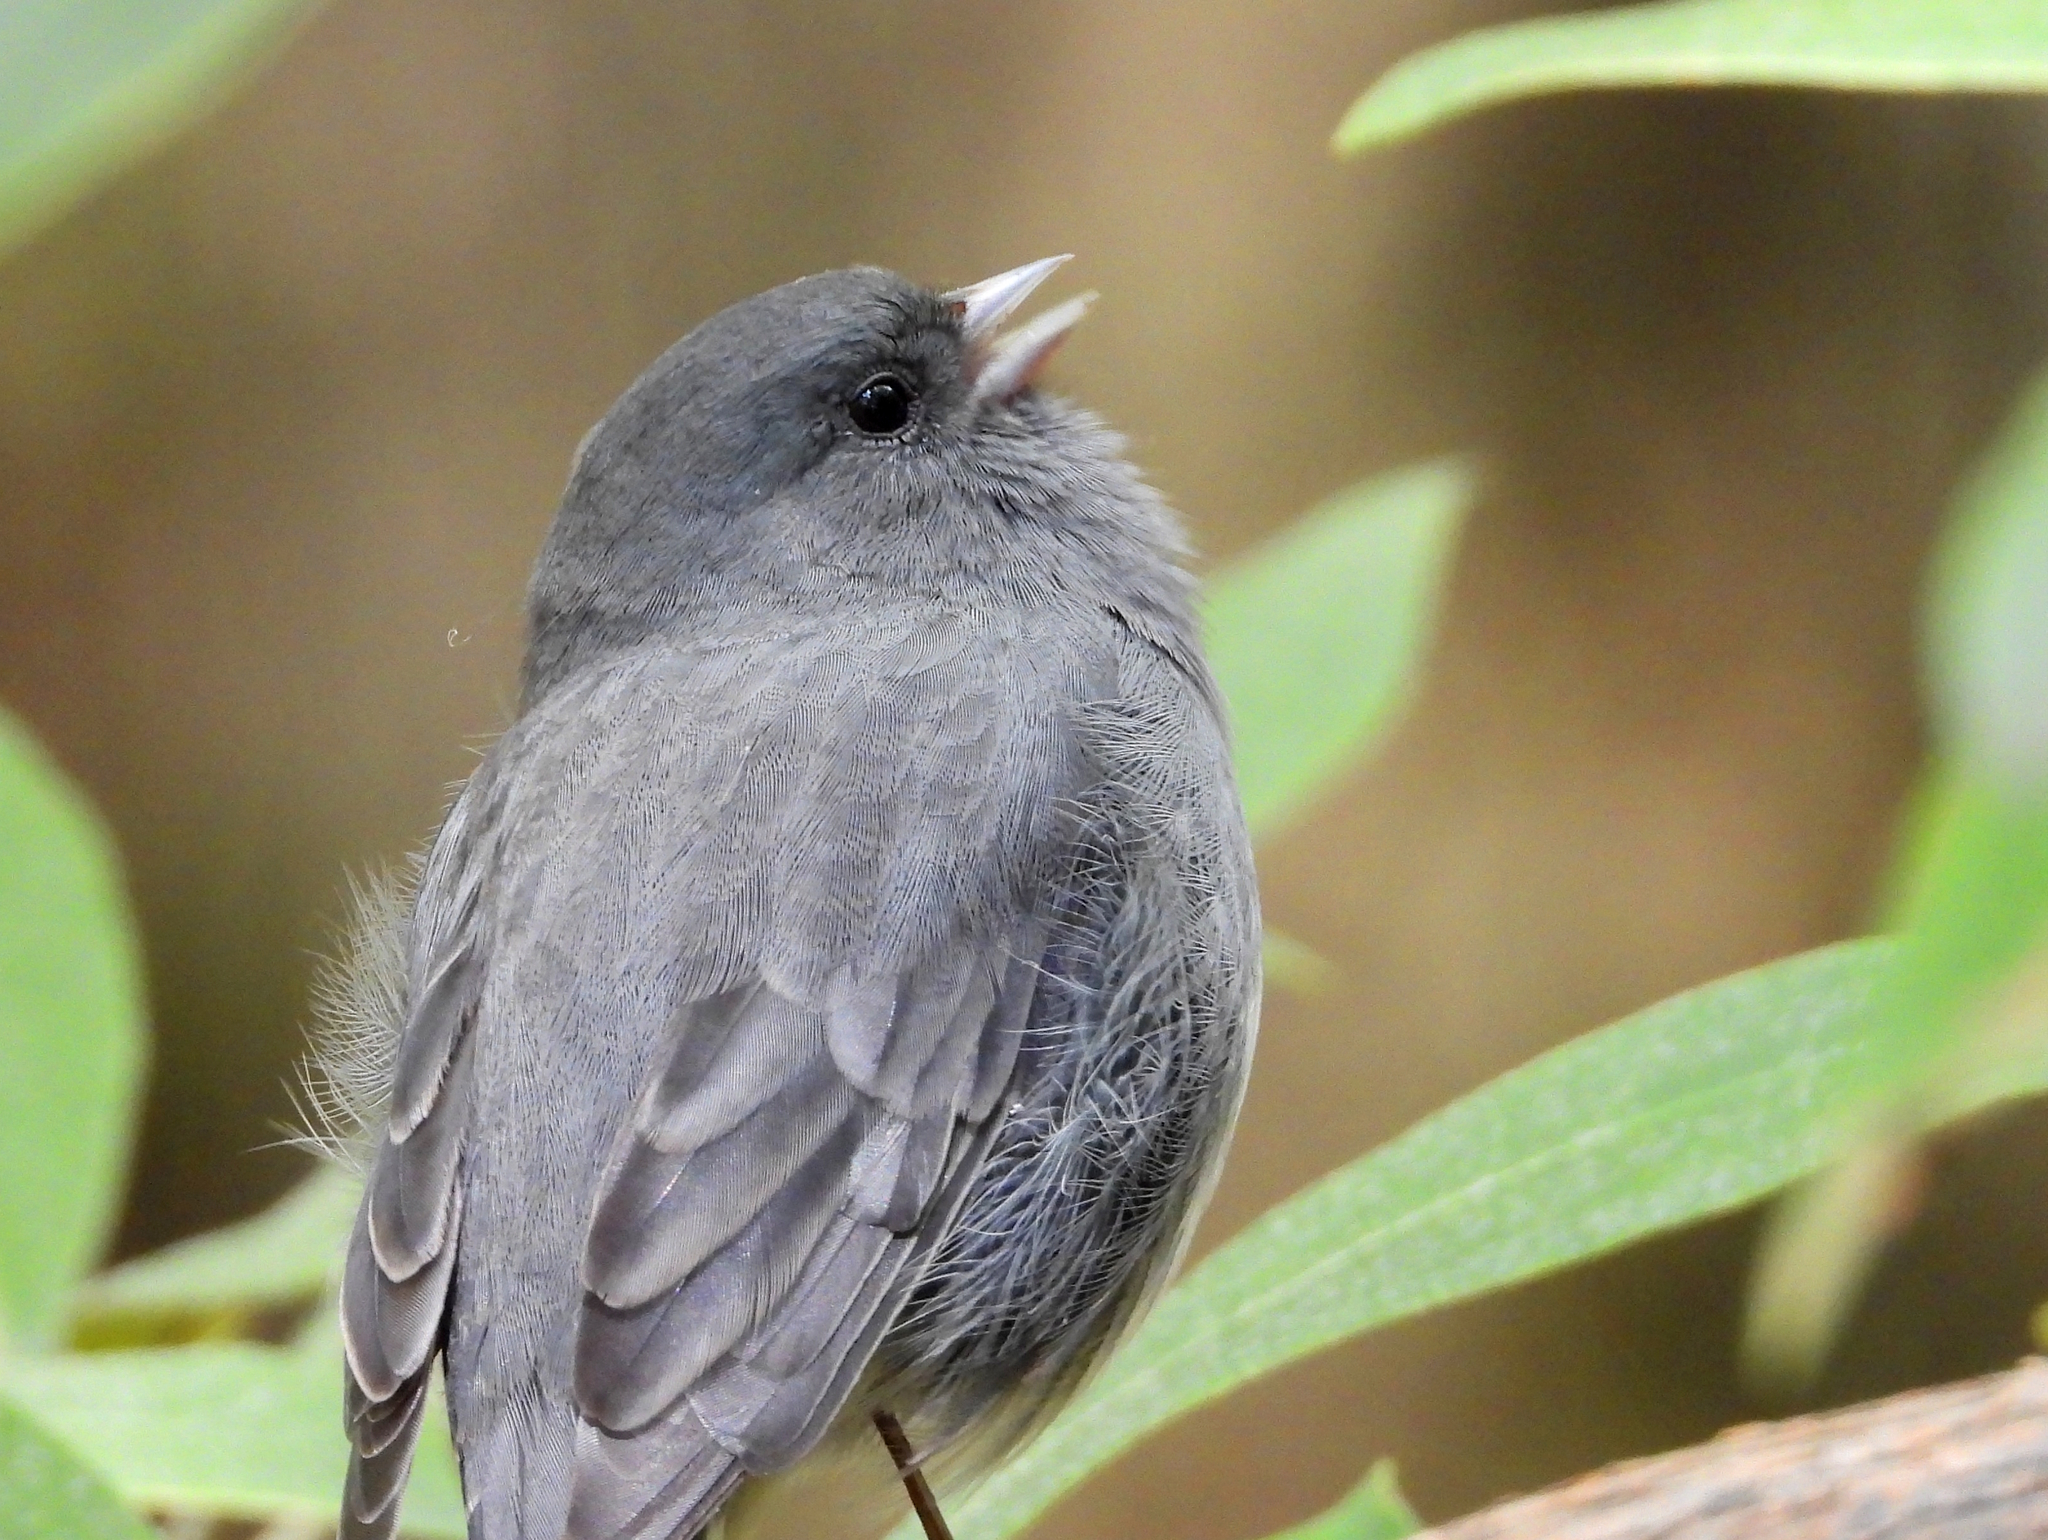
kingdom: Animalia
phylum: Chordata
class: Aves
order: Passeriformes
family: Passerellidae
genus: Junco
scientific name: Junco hyemalis
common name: Dark-eyed junco
